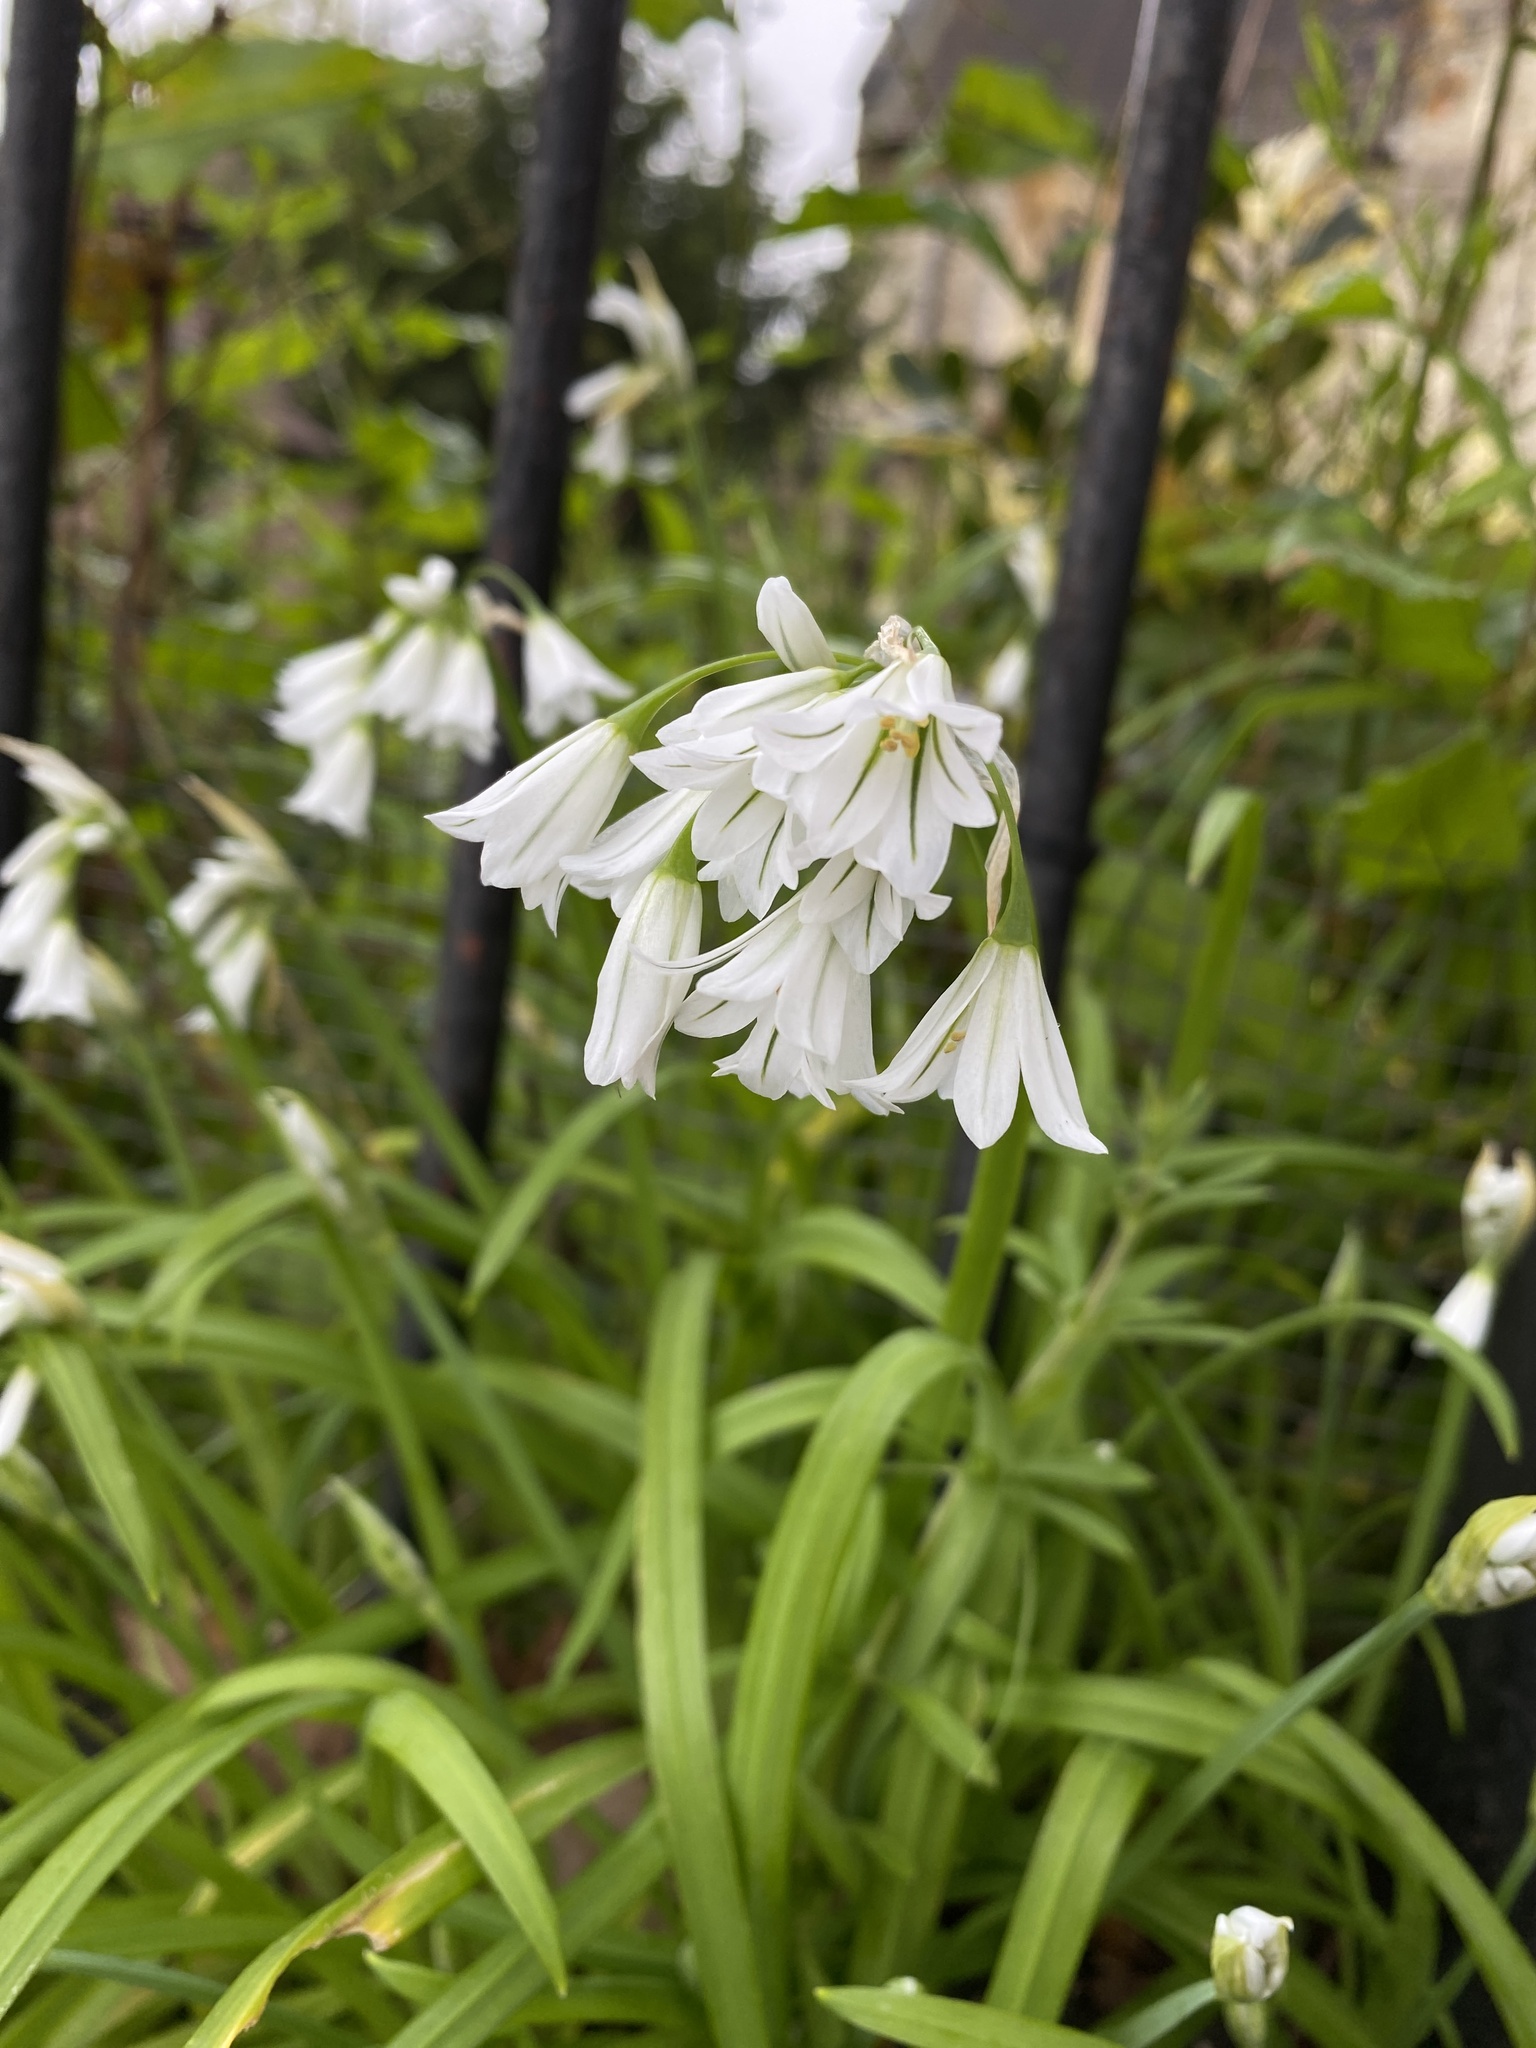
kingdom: Plantae
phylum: Tracheophyta
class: Liliopsida
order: Asparagales
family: Amaryllidaceae
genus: Allium
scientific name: Allium triquetrum
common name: Three-cornered garlic
